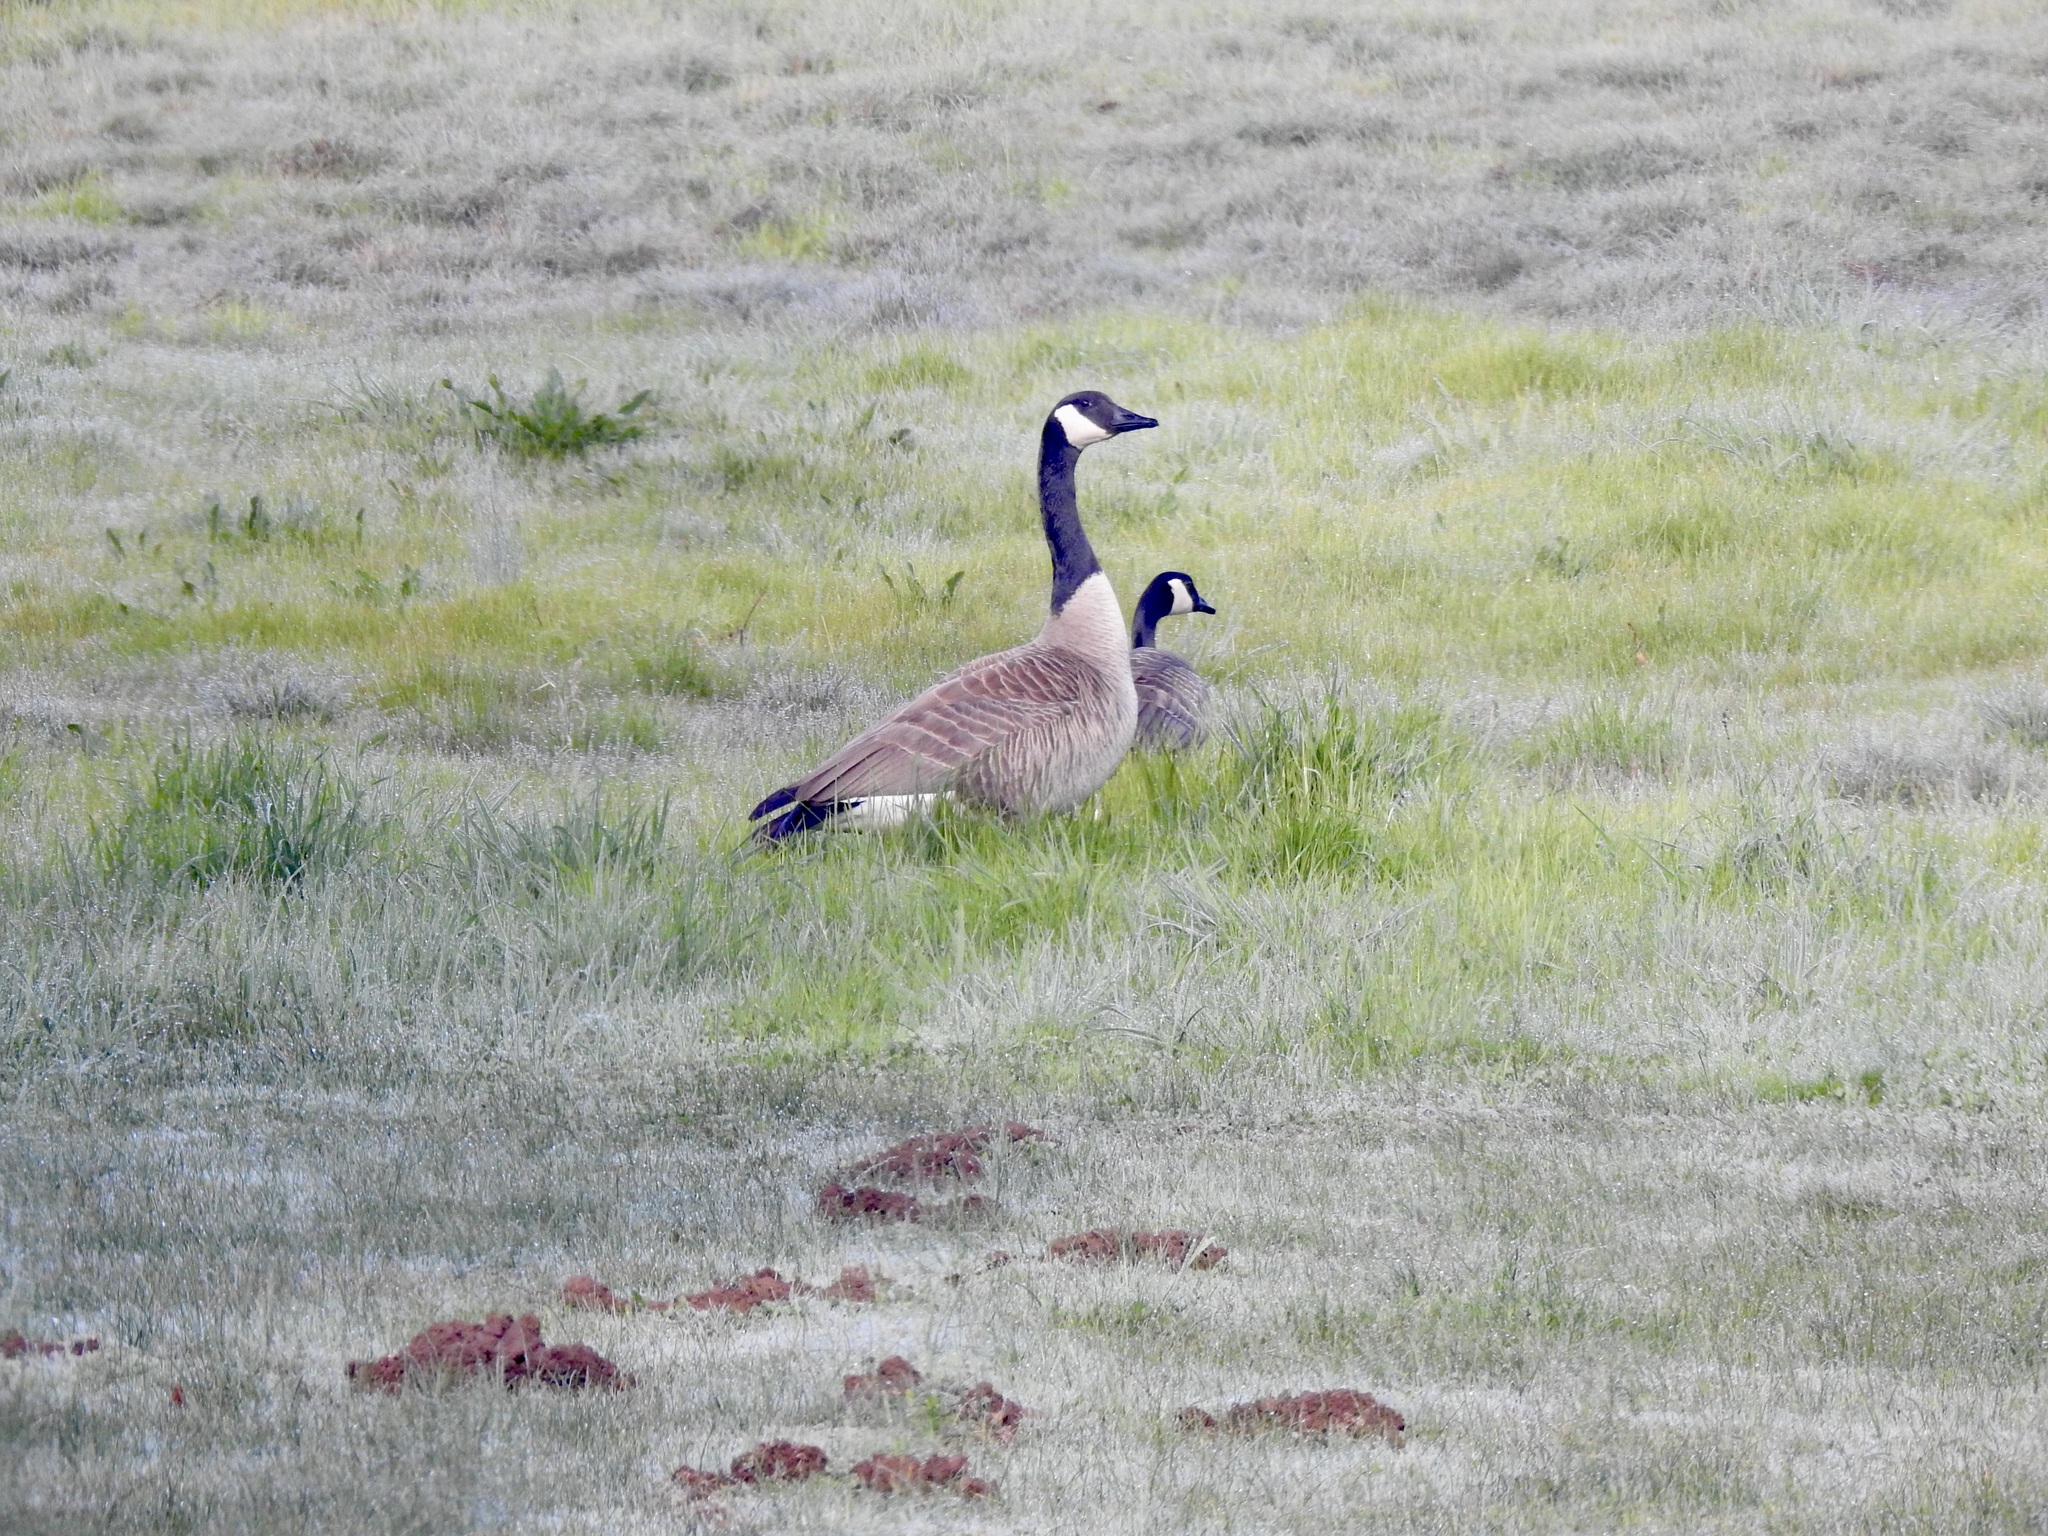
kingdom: Animalia
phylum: Chordata
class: Aves
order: Anseriformes
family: Anatidae
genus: Branta
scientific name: Branta canadensis
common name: Canada goose
